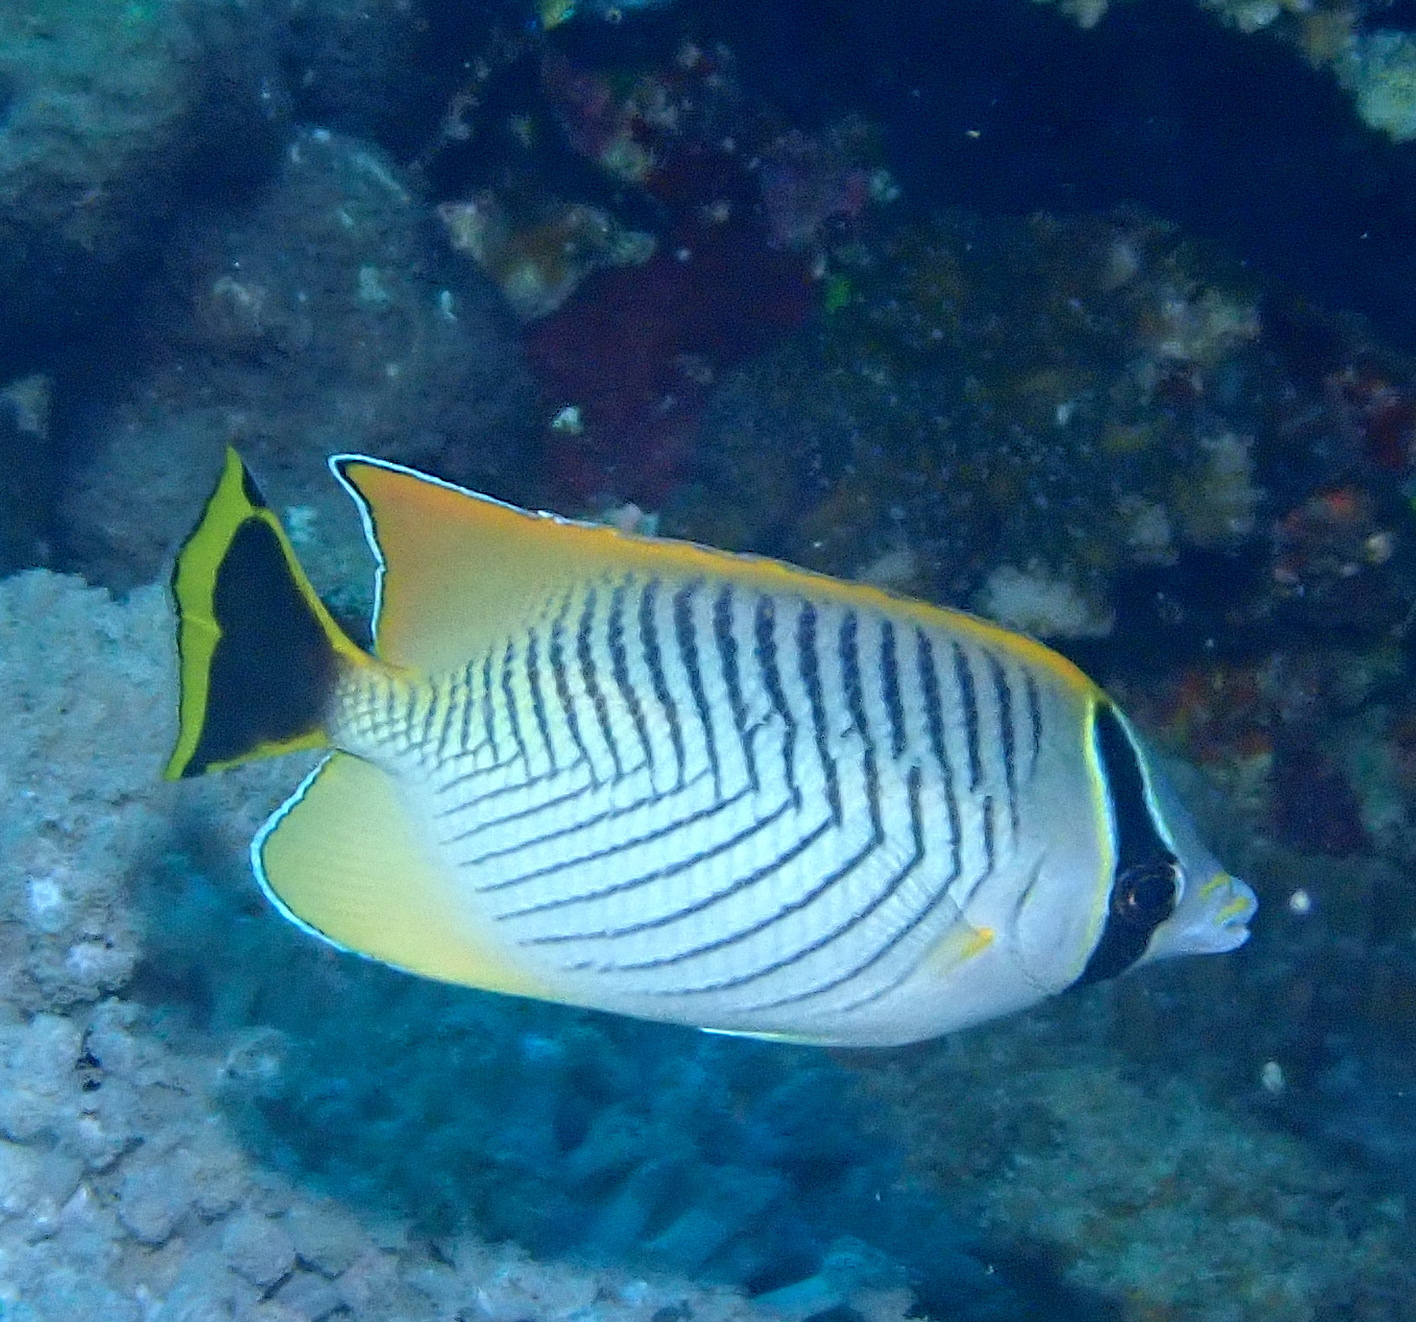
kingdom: Animalia
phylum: Chordata
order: Perciformes
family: Chaetodontidae
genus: Chaetodon
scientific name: Chaetodon trifascialis
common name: Chevroned butterflyfish
